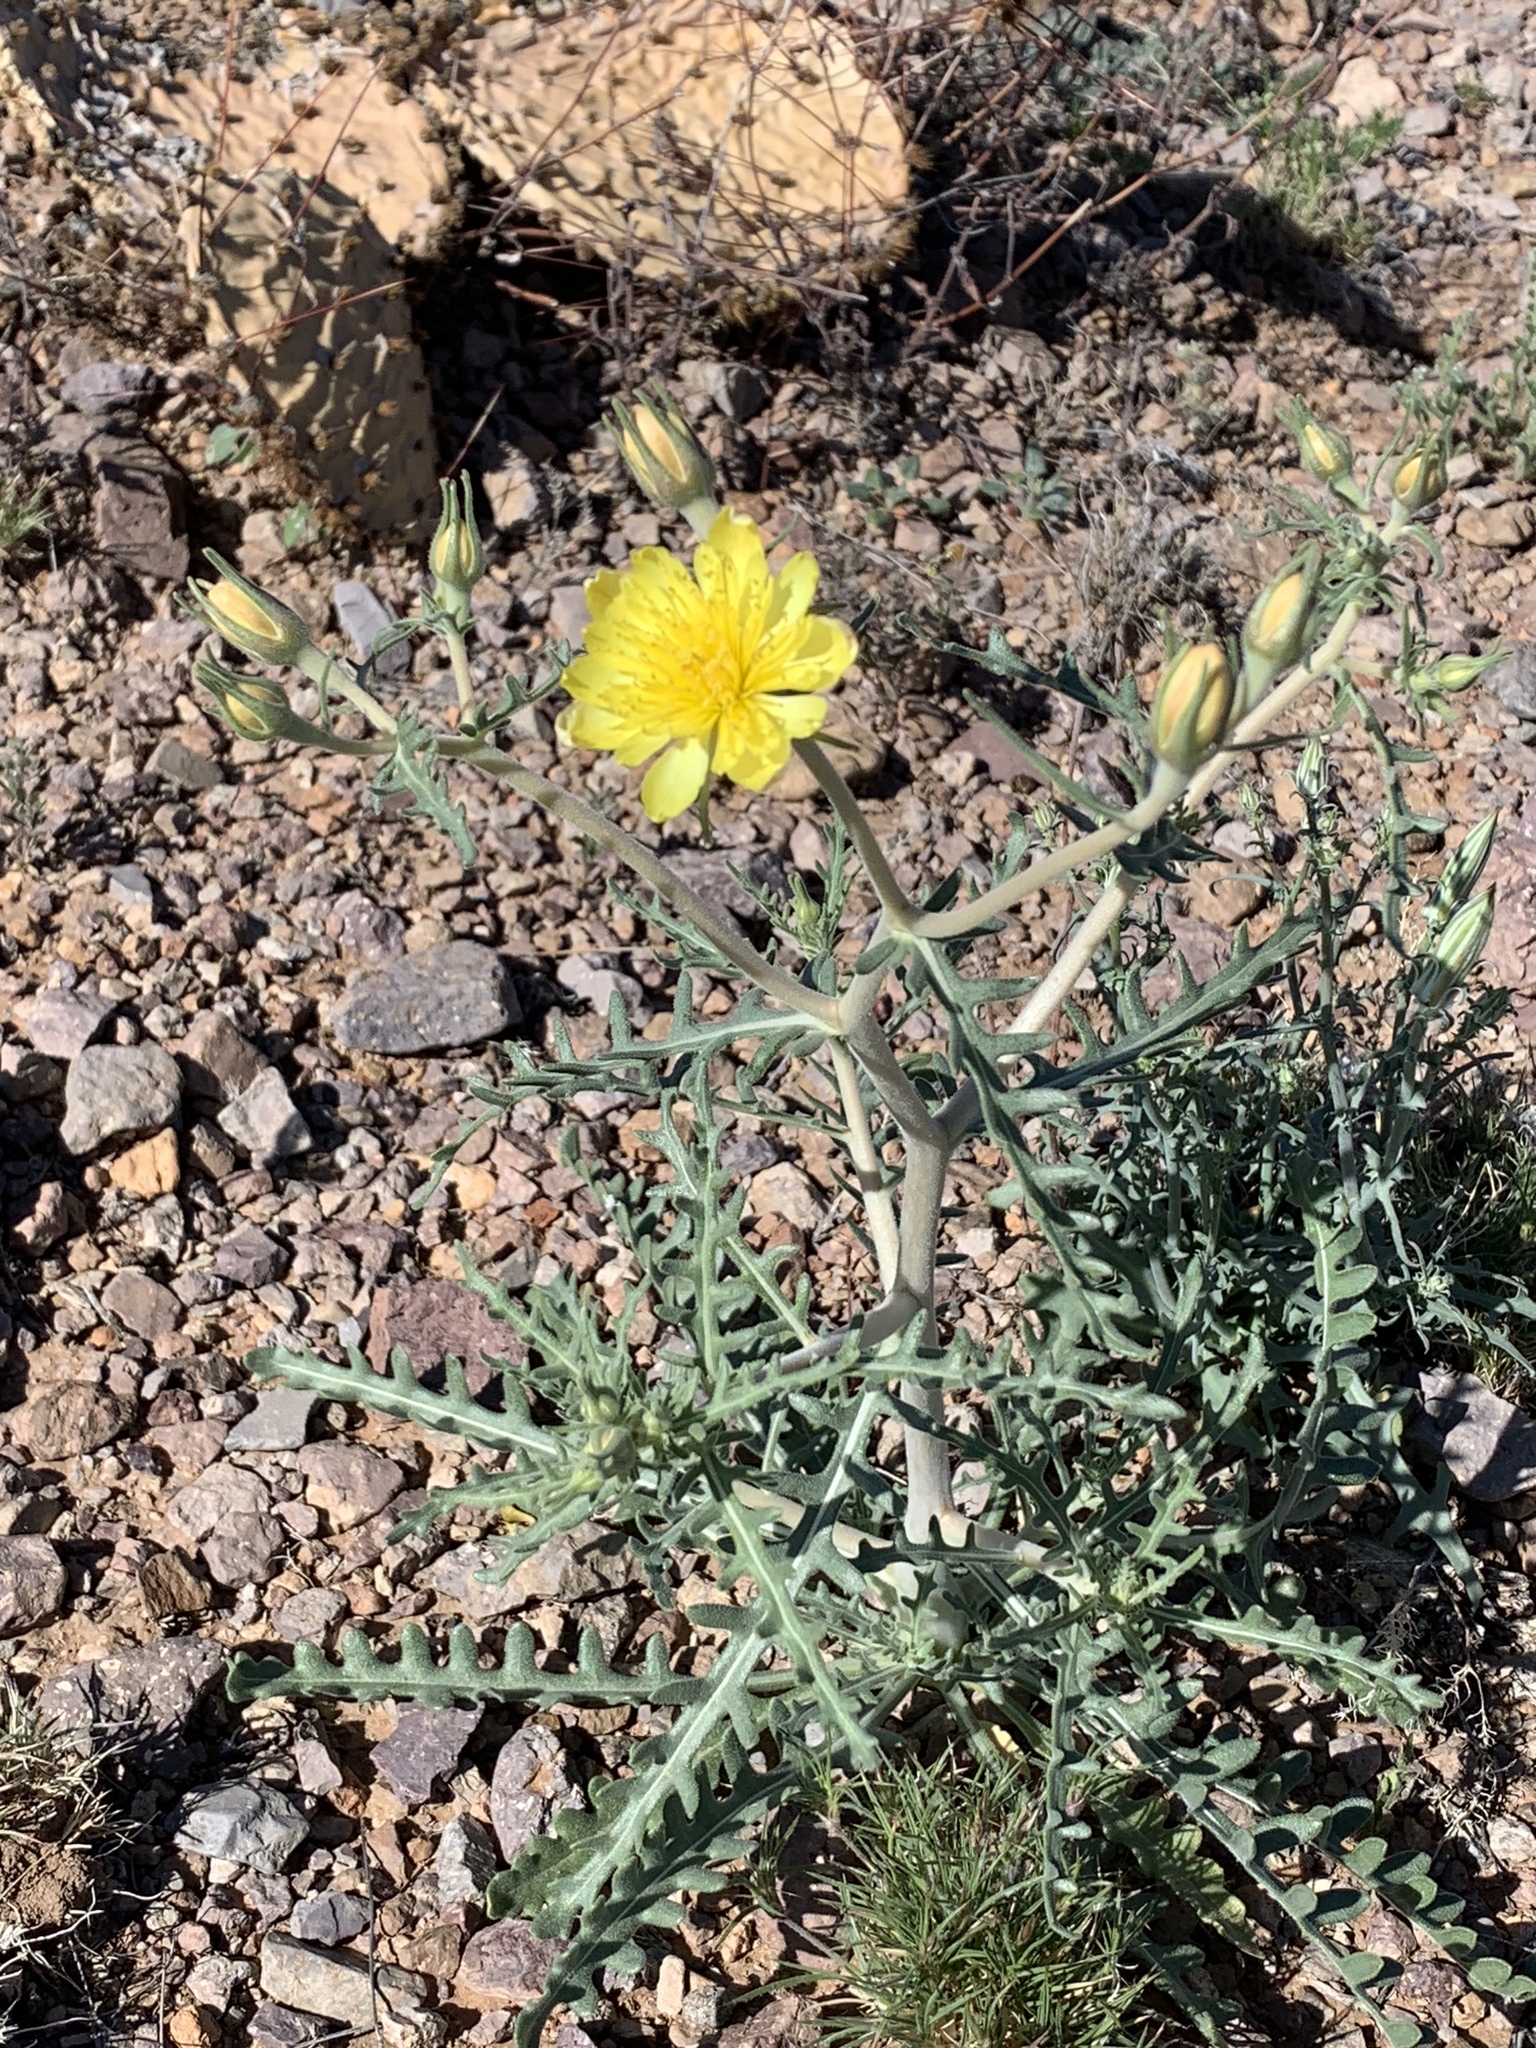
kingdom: Plantae
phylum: Tracheophyta
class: Magnoliopsida
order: Cornales
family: Loasaceae
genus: Mentzelia
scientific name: Mentzelia procera
